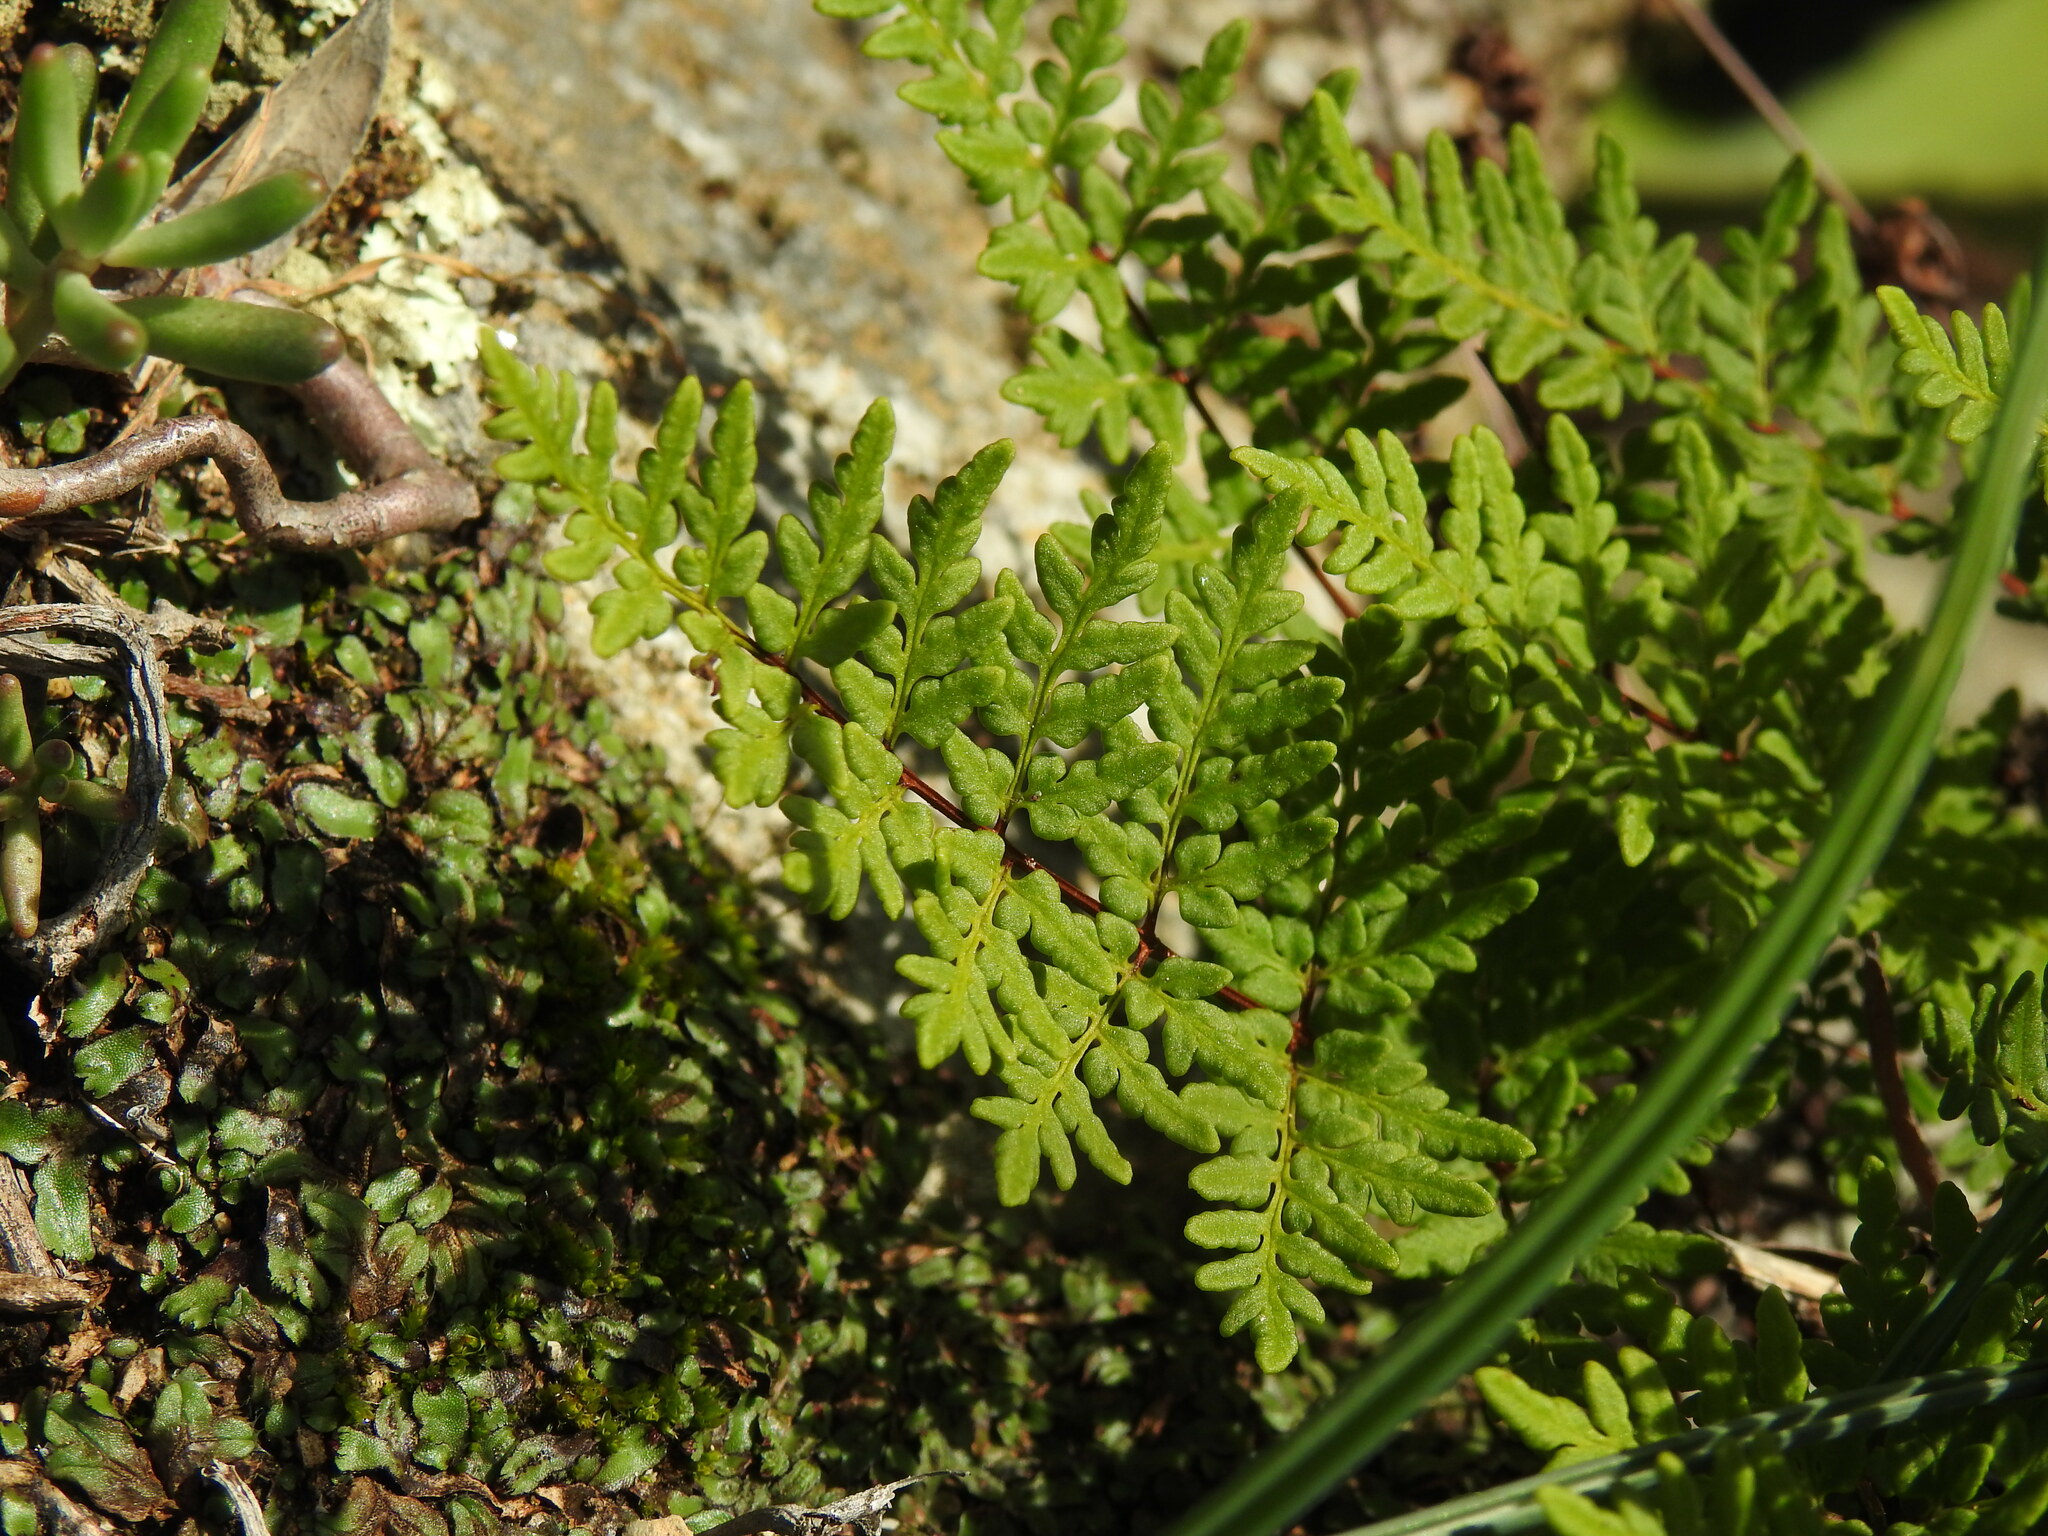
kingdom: Plantae
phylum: Tracheophyta
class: Polypodiopsida
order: Polypodiales
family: Pteridaceae
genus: Oeosporangium
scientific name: Oeosporangium guanchicum
